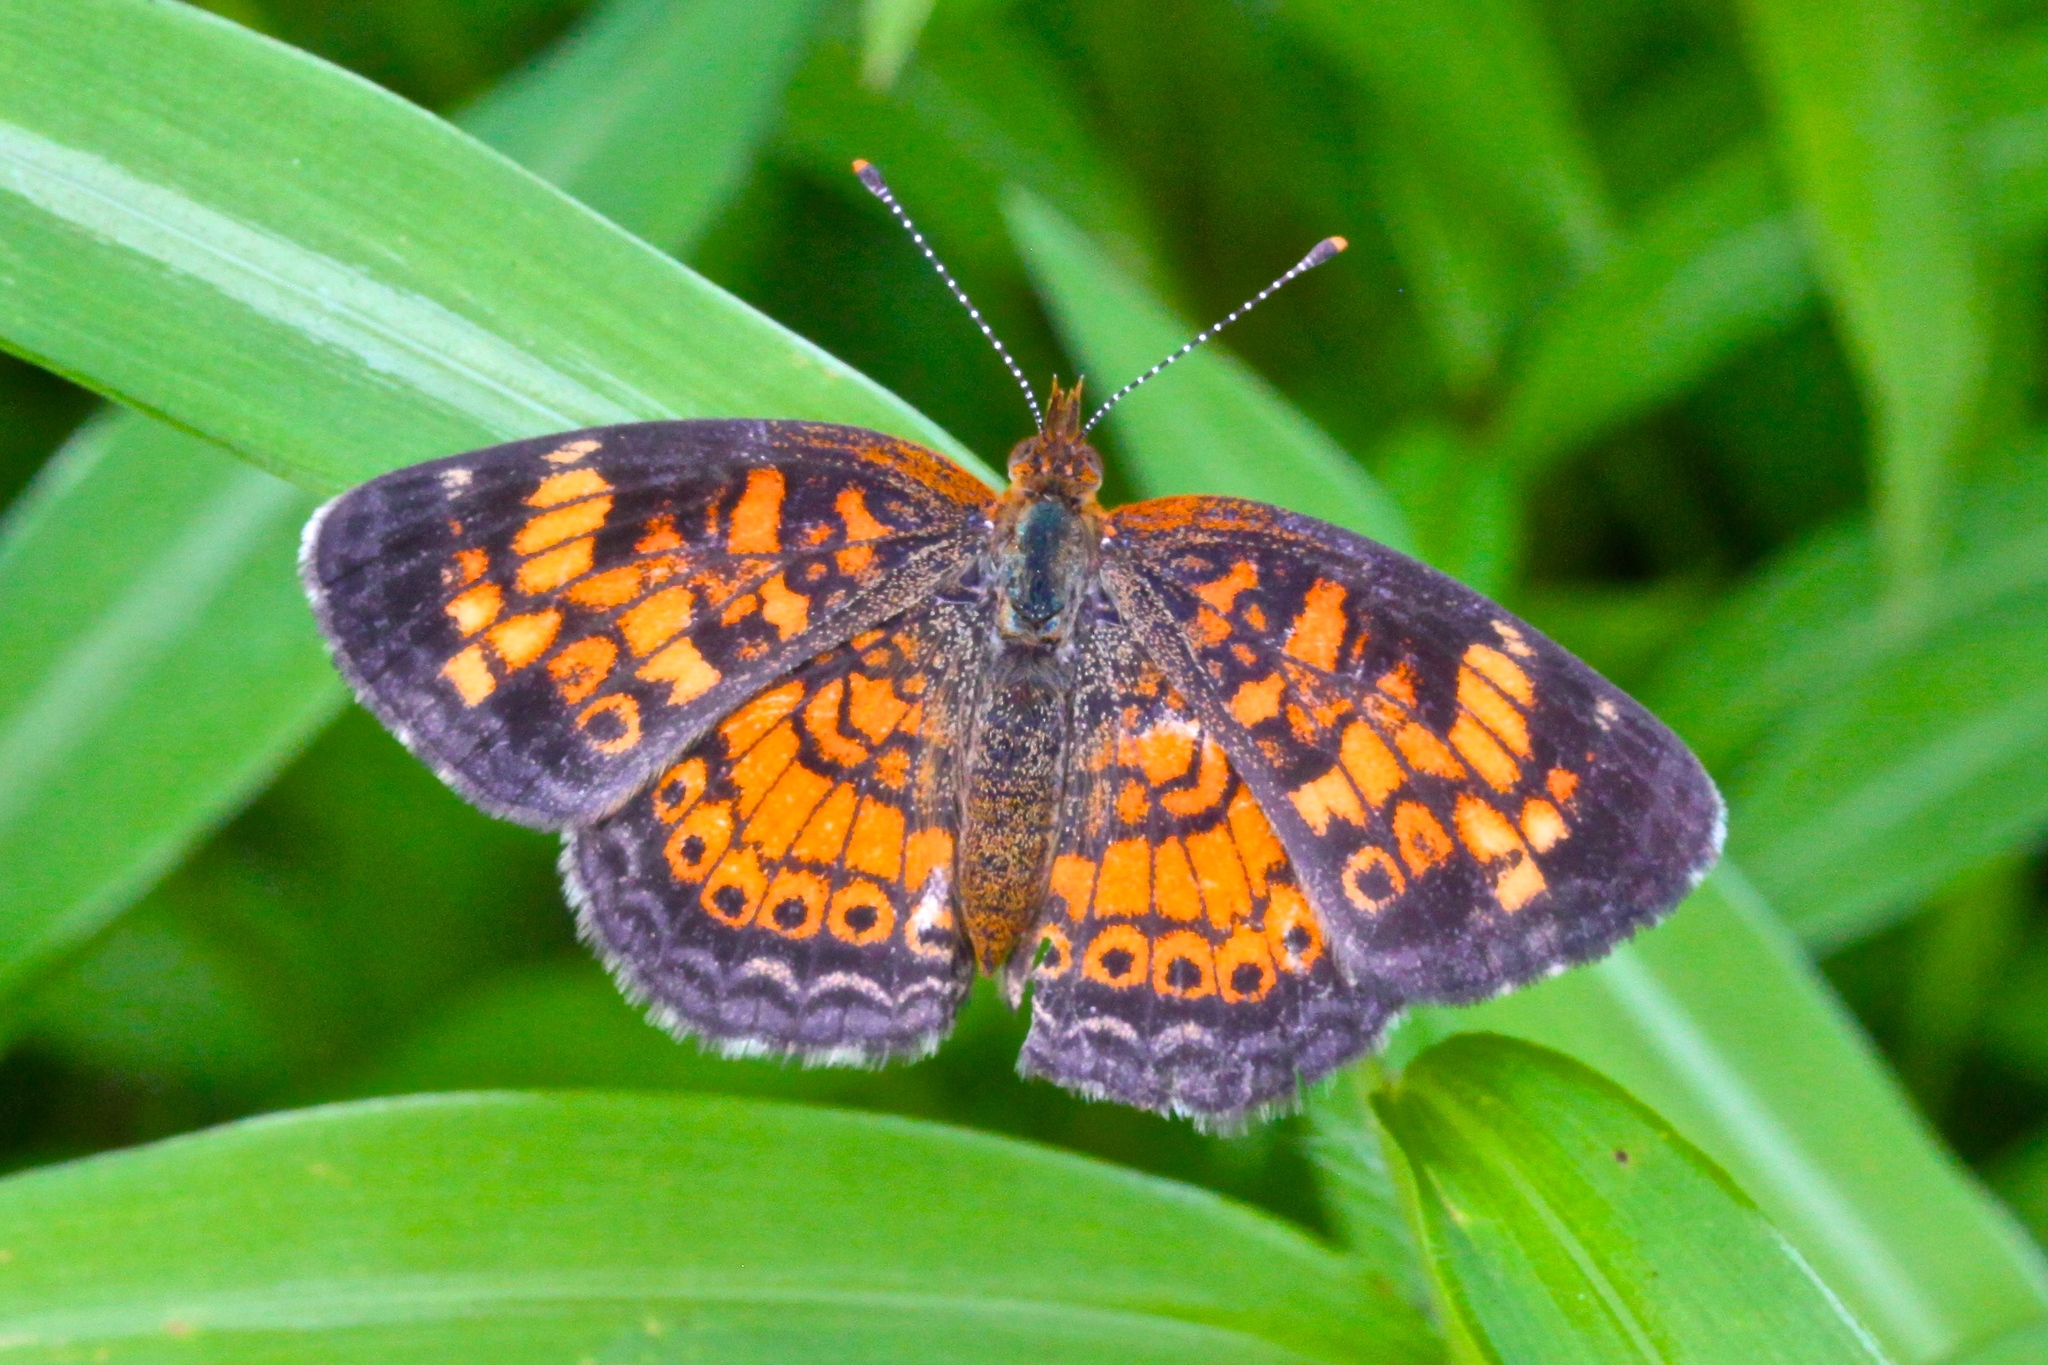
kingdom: Animalia
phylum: Arthropoda
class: Insecta
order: Lepidoptera
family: Nymphalidae
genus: Phyciodes
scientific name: Phyciodes tharos
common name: Pearl crescent
